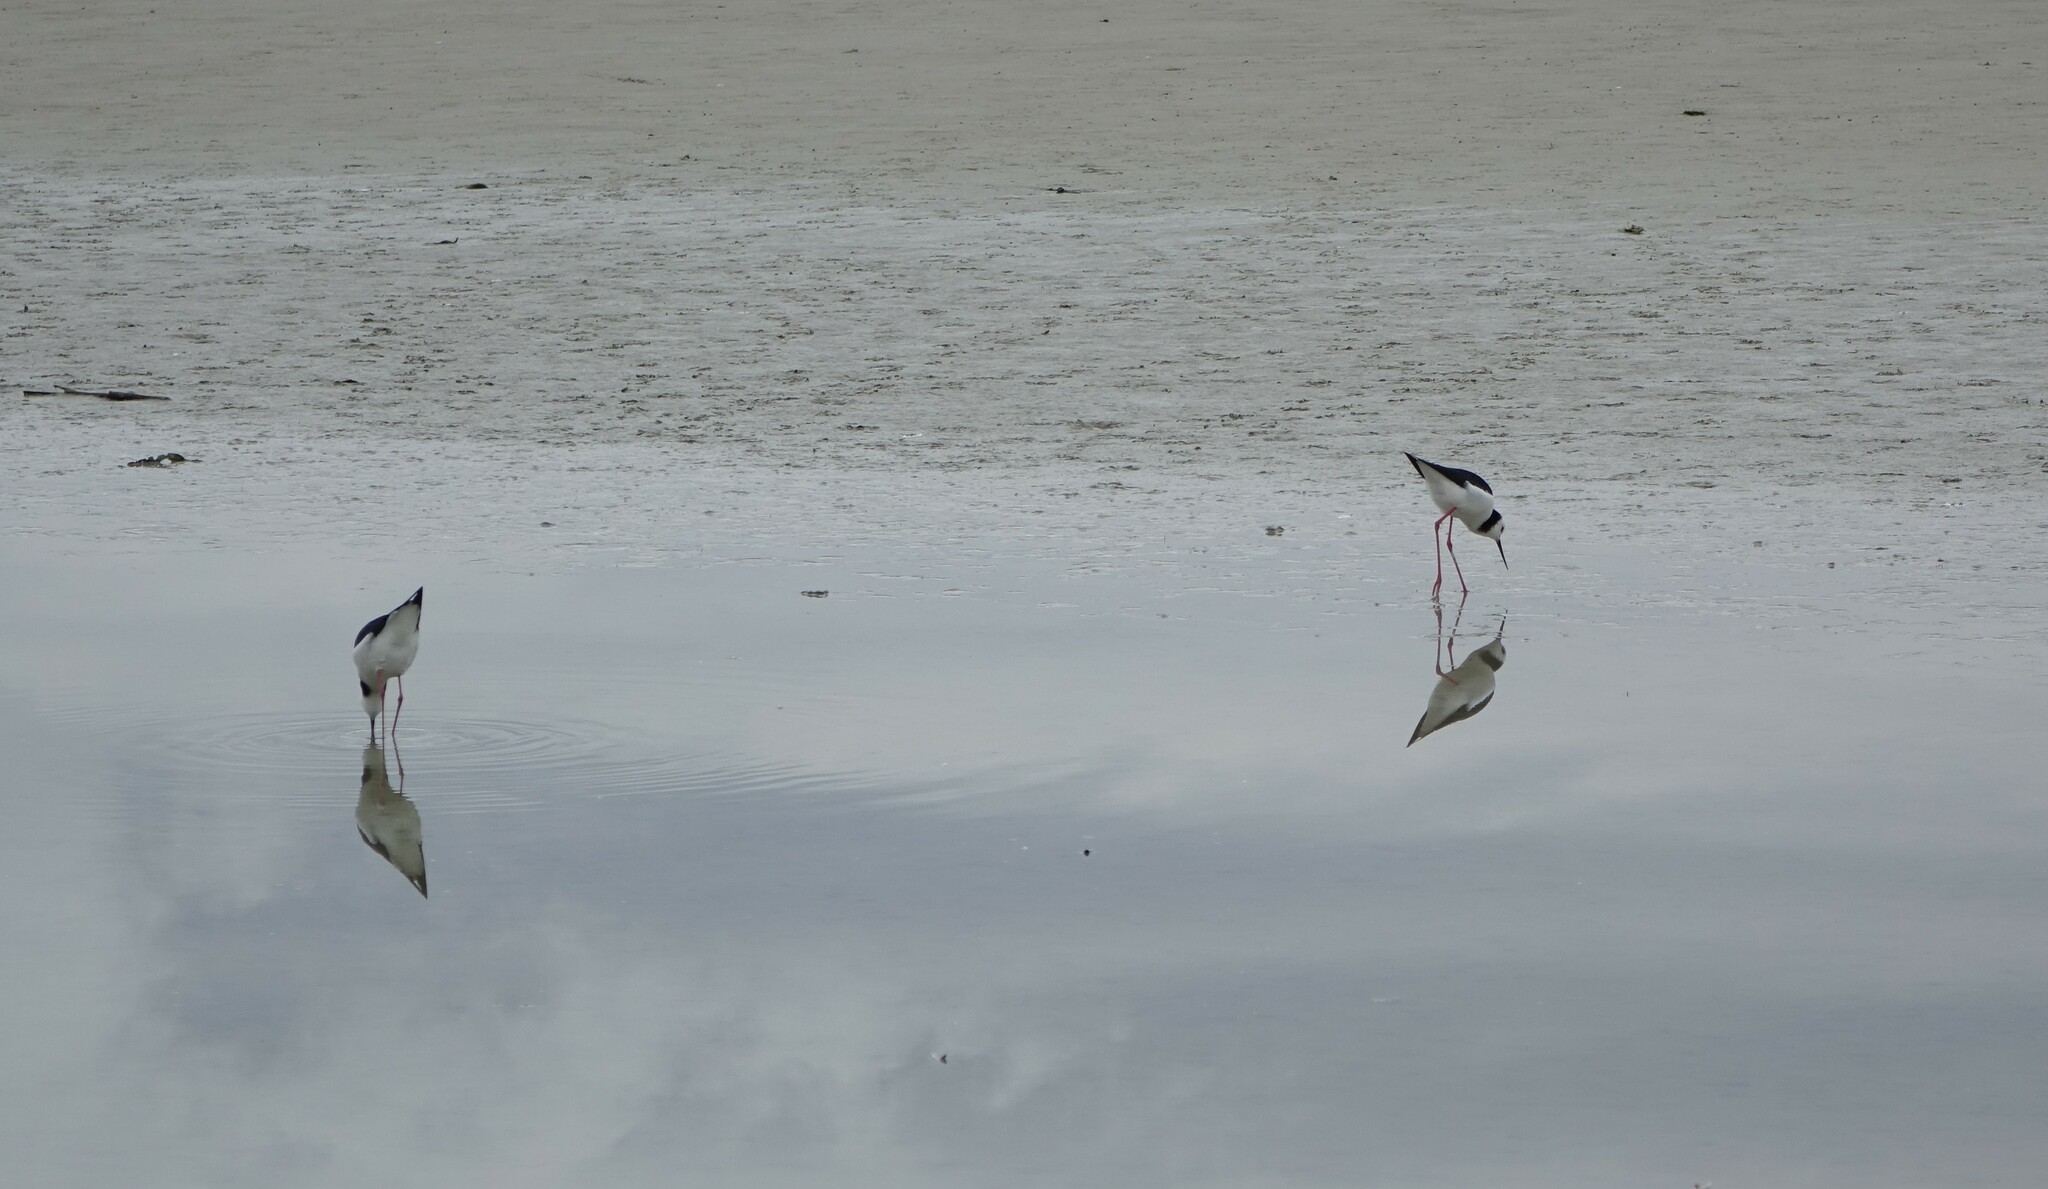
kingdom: Animalia
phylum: Chordata
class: Aves
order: Charadriiformes
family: Recurvirostridae
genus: Himantopus
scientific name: Himantopus leucocephalus
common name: White-headed stilt
